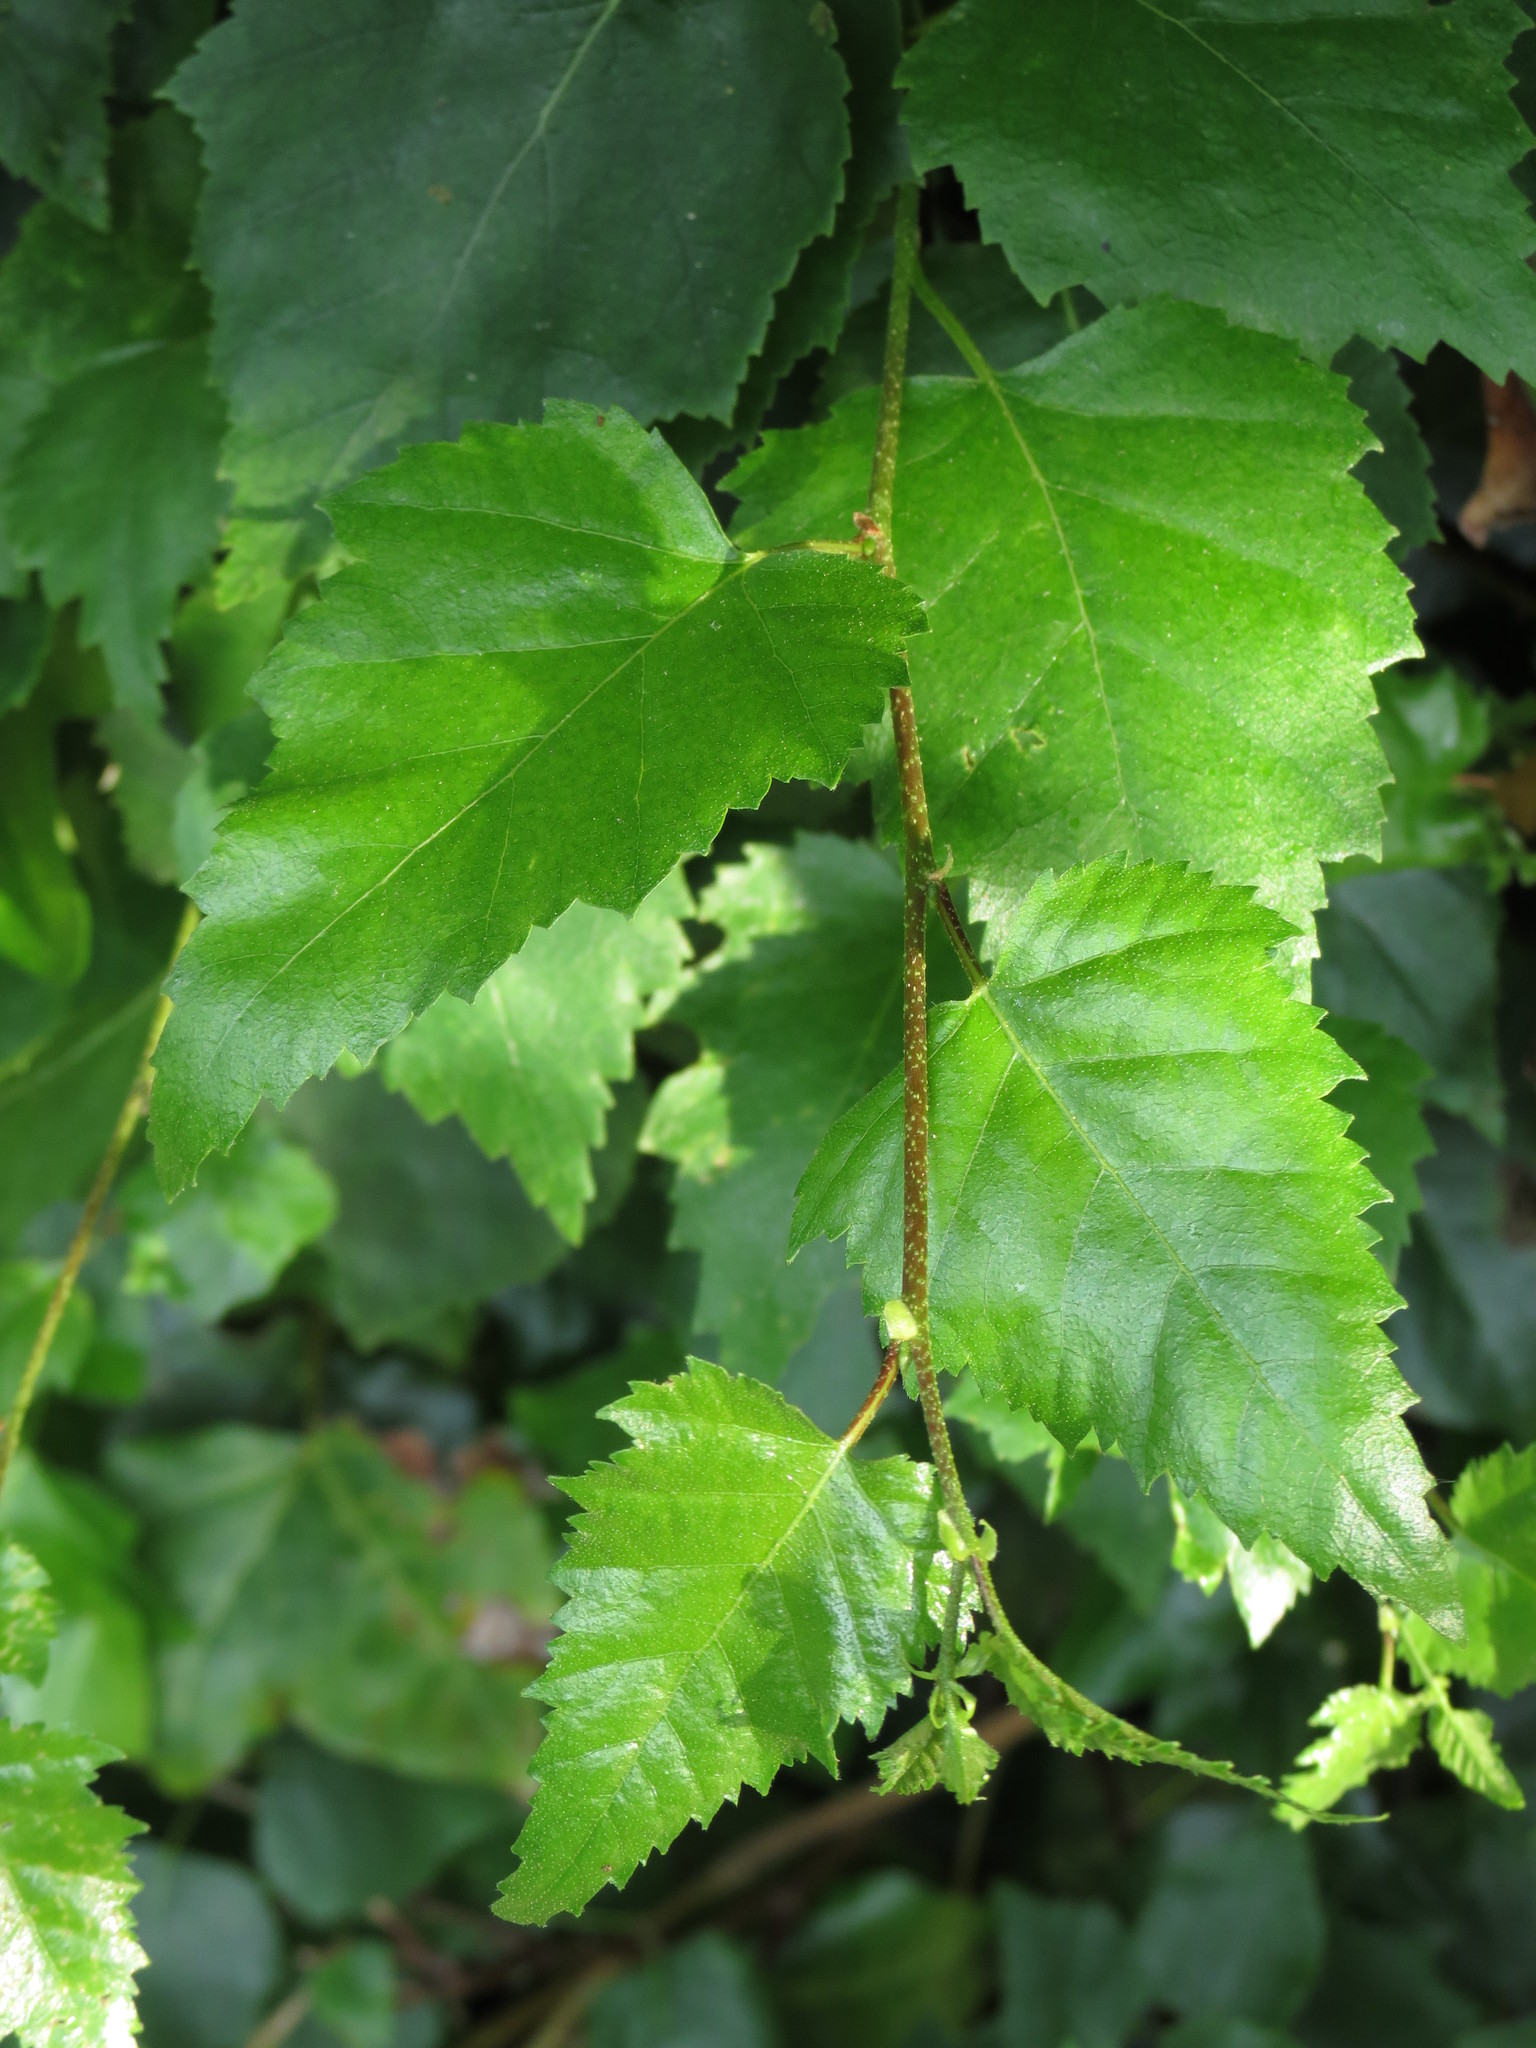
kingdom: Plantae
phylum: Tracheophyta
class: Magnoliopsida
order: Fagales
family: Betulaceae
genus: Betula
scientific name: Betula pendula
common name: Silver birch
